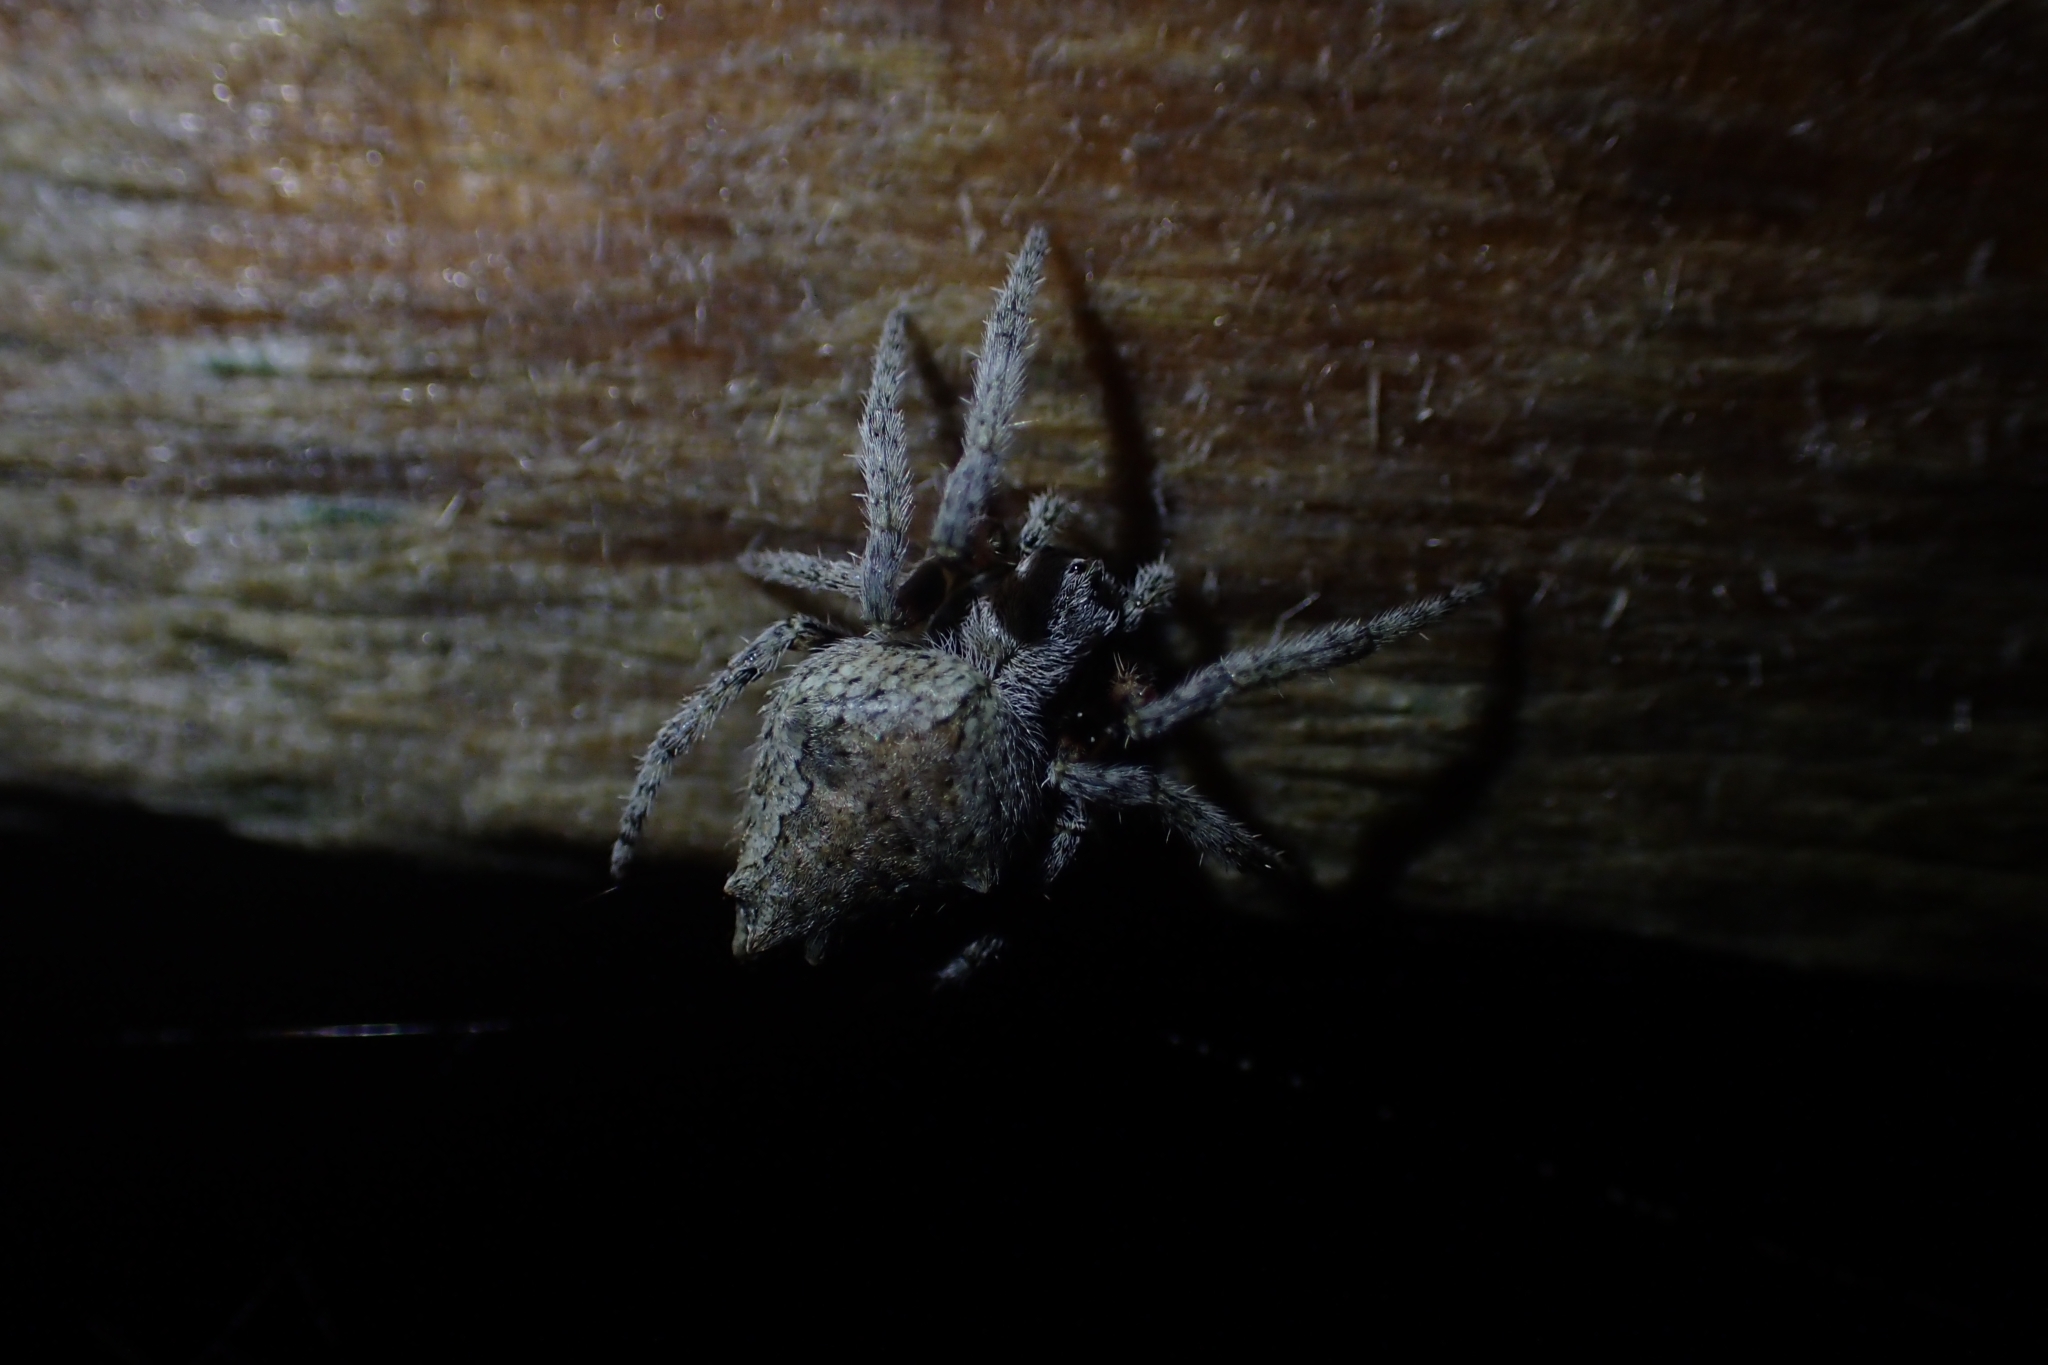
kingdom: Animalia
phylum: Arthropoda
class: Arachnida
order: Araneae
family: Araneidae
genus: Eriophora
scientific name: Eriophora pustulosa
